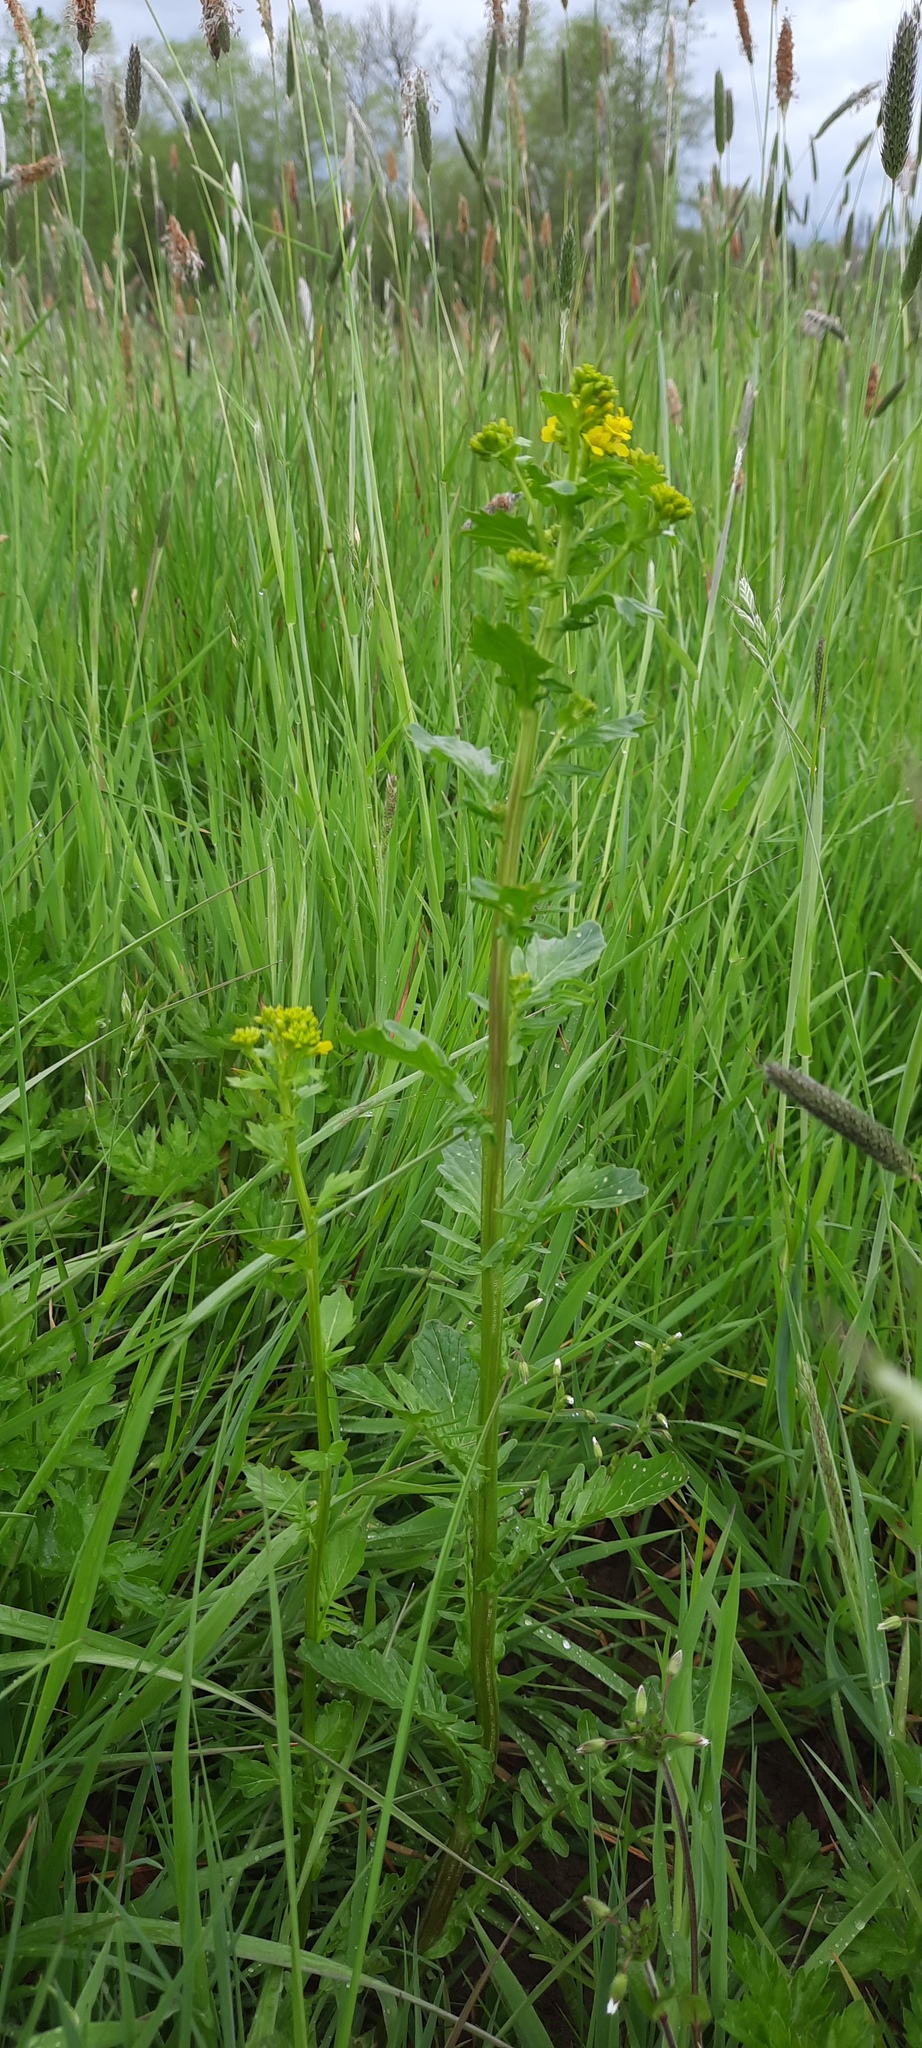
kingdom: Plantae
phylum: Tracheophyta
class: Magnoliopsida
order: Brassicales
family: Brassicaceae
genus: Barbarea
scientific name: Barbarea vulgaris
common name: Cressy-greens
